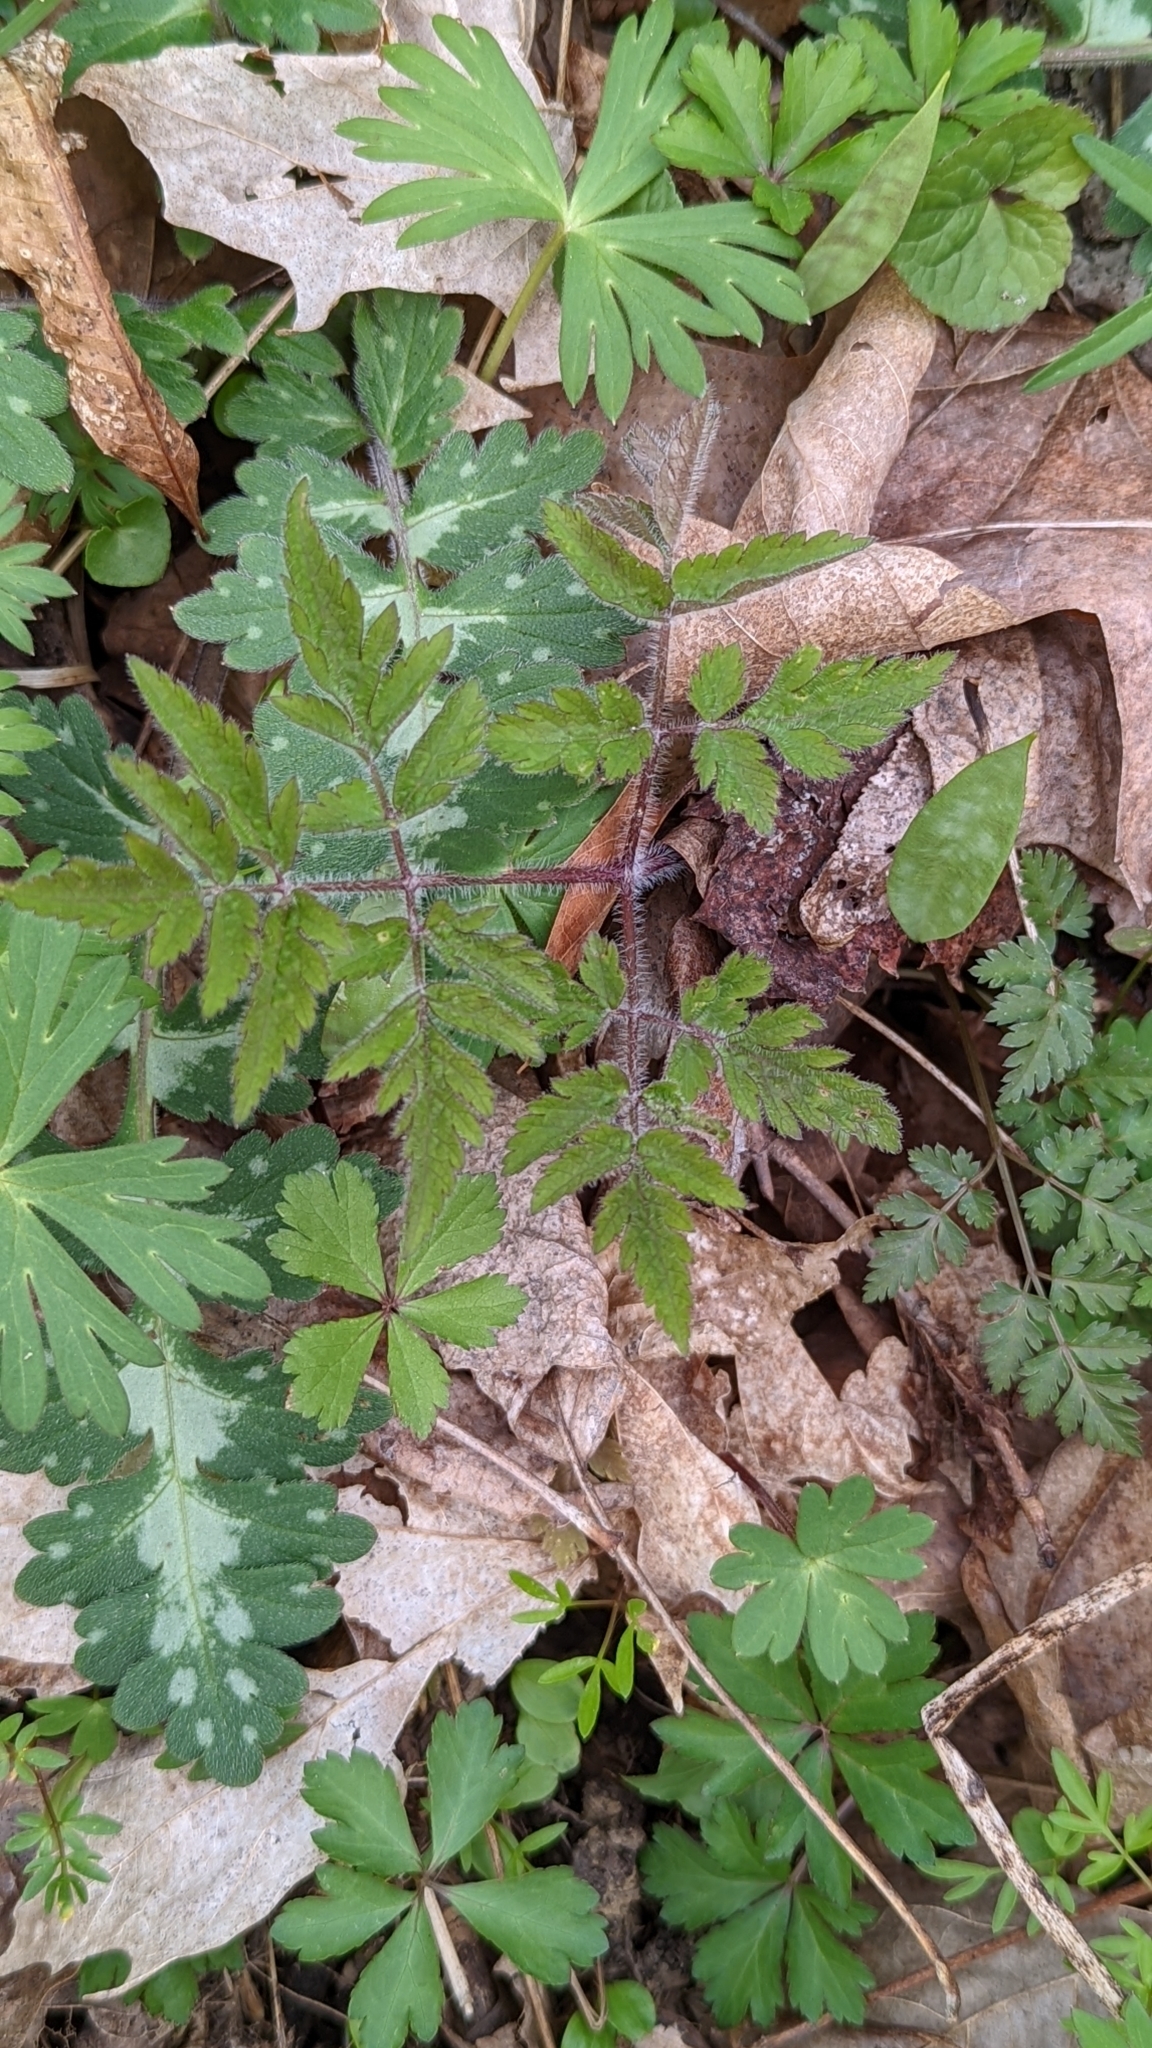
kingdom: Plantae
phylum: Tracheophyta
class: Magnoliopsida
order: Apiales
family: Apiaceae
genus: Osmorhiza
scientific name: Osmorhiza claytonii
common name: Hairy sweet cicely
